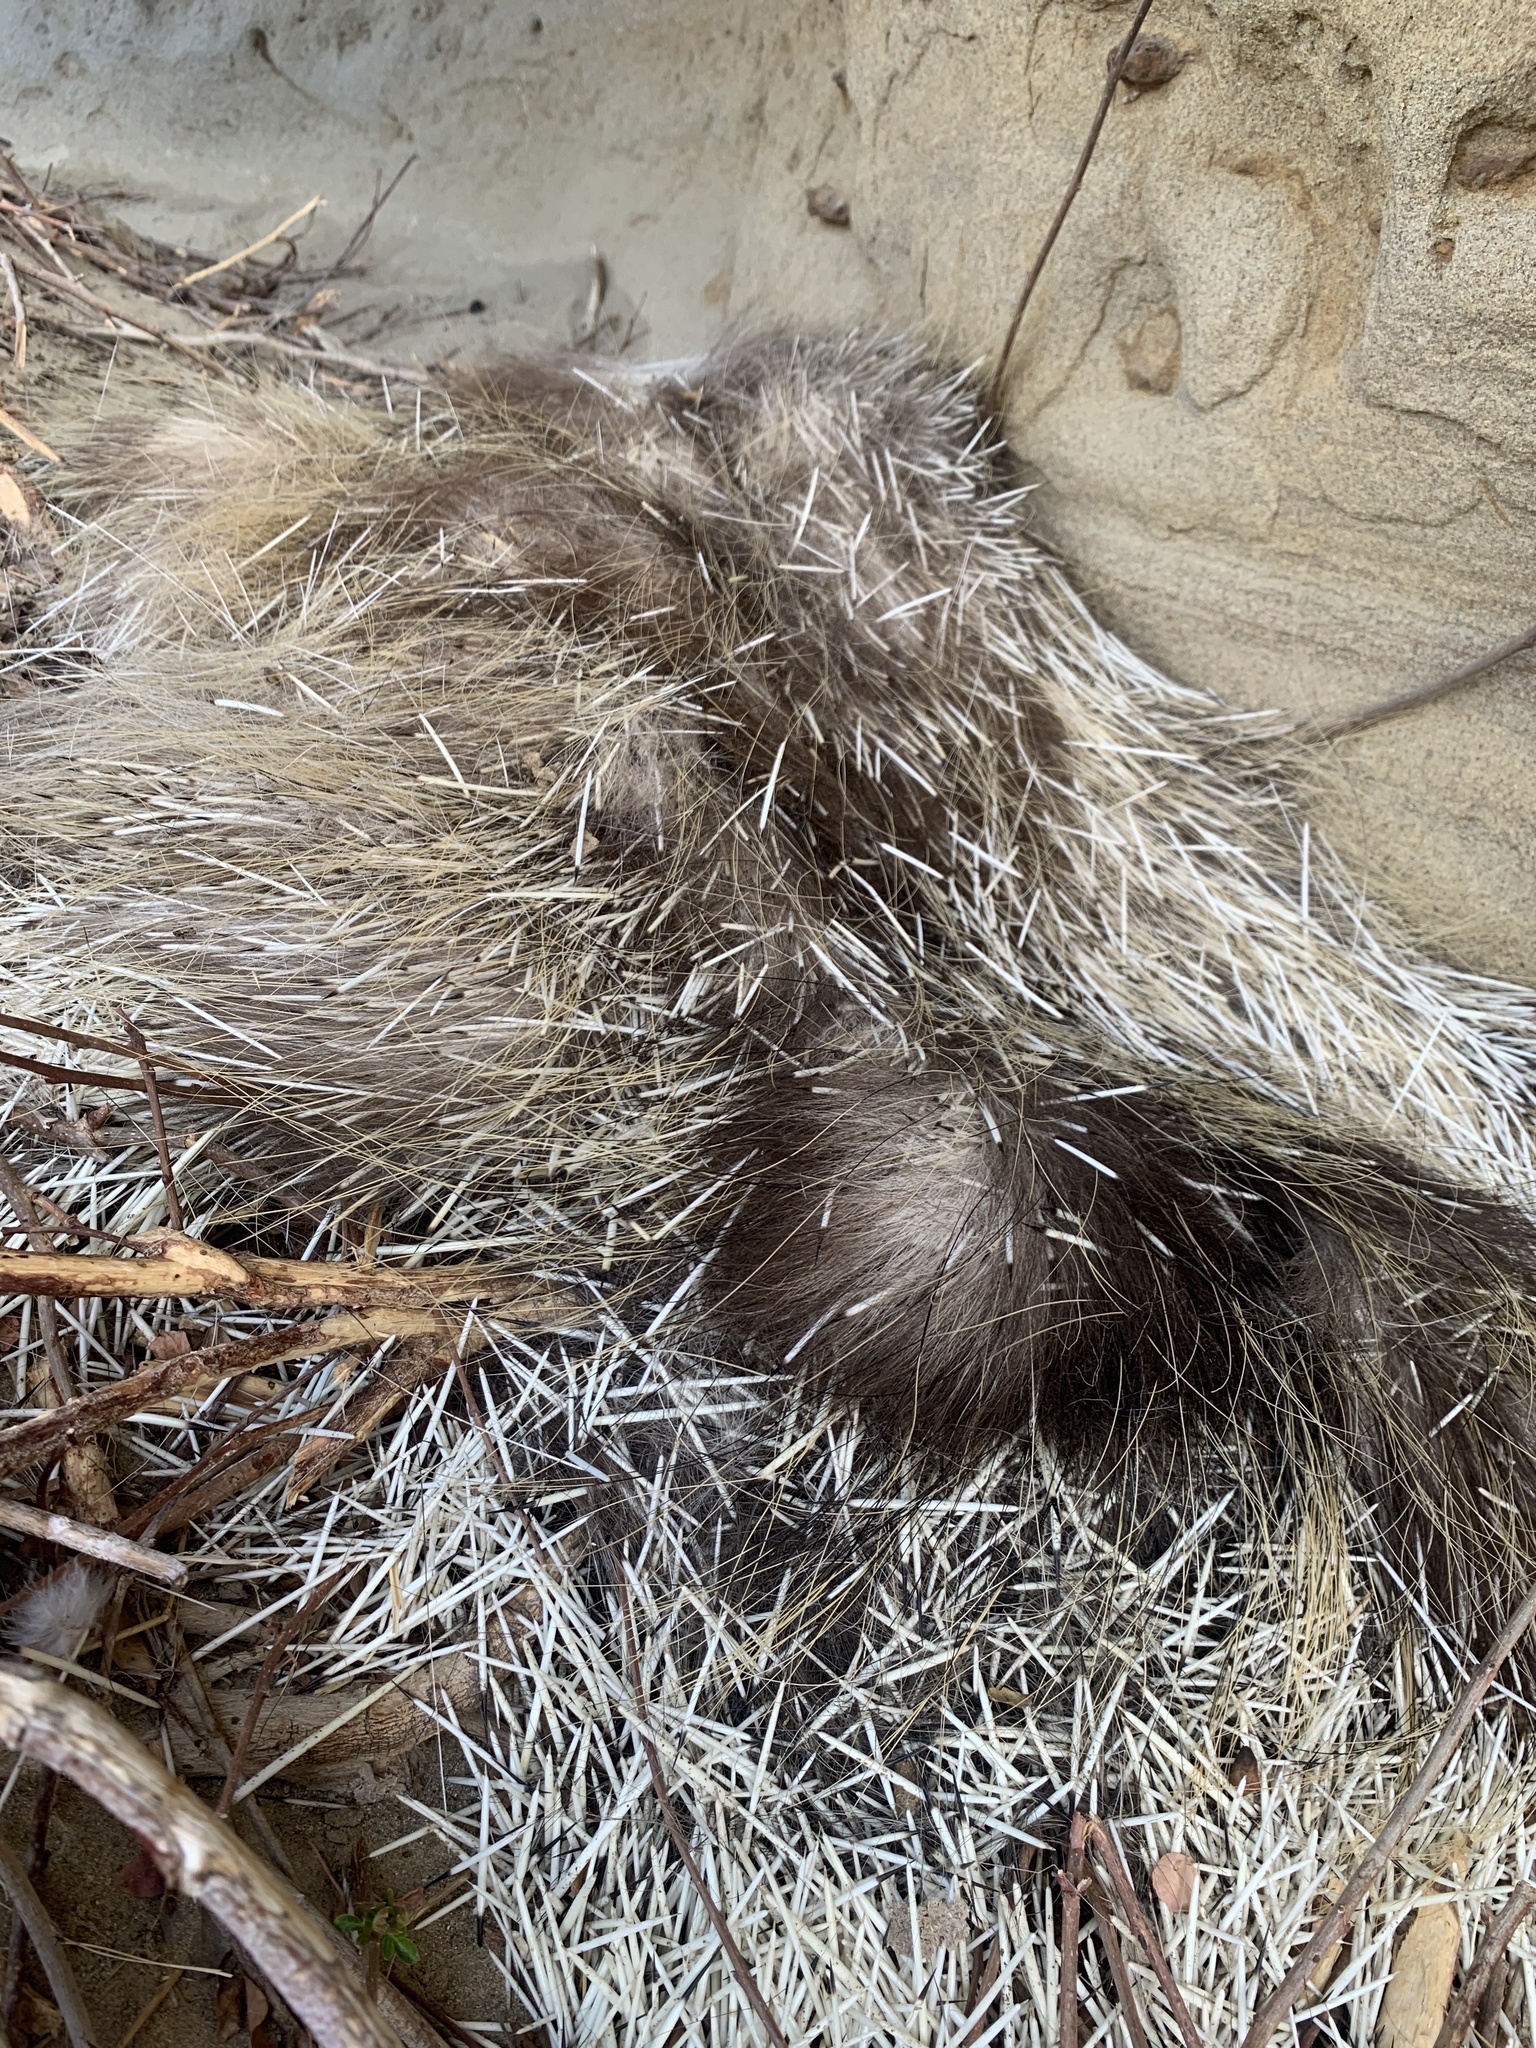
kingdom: Animalia
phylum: Chordata
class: Mammalia
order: Rodentia
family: Erethizontidae
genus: Erethizon
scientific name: Erethizon dorsatus
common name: North american porcupine
